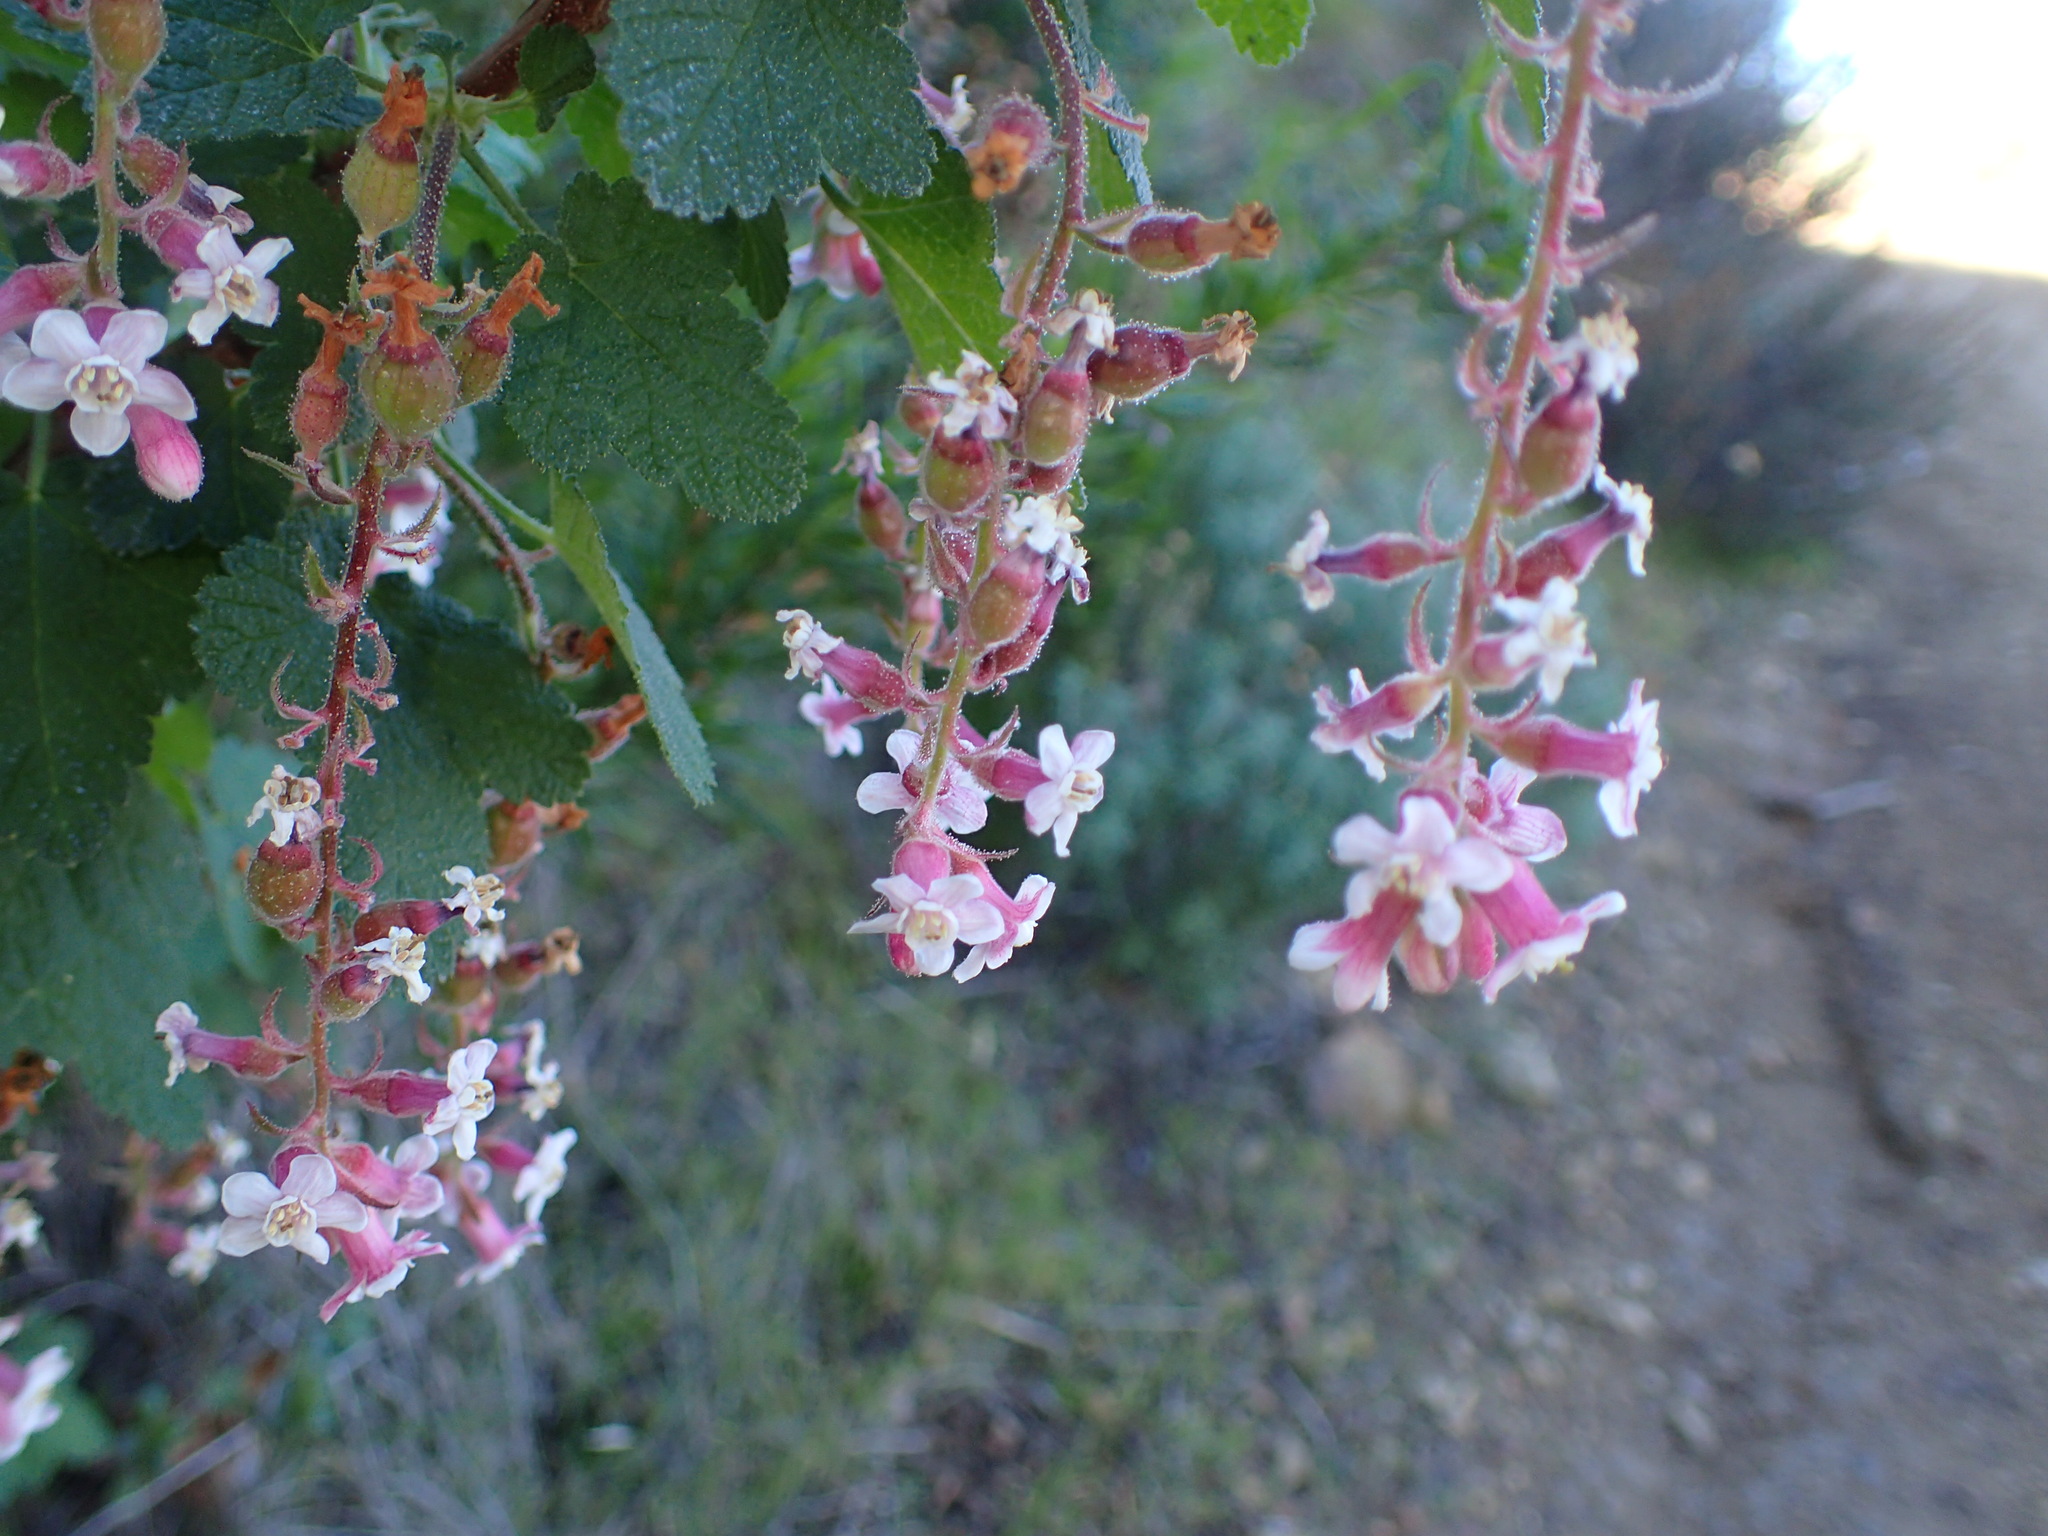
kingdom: Plantae
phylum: Tracheophyta
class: Magnoliopsida
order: Saxifragales
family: Grossulariaceae
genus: Ribes
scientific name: Ribes malvaceum
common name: Chaparral currant
